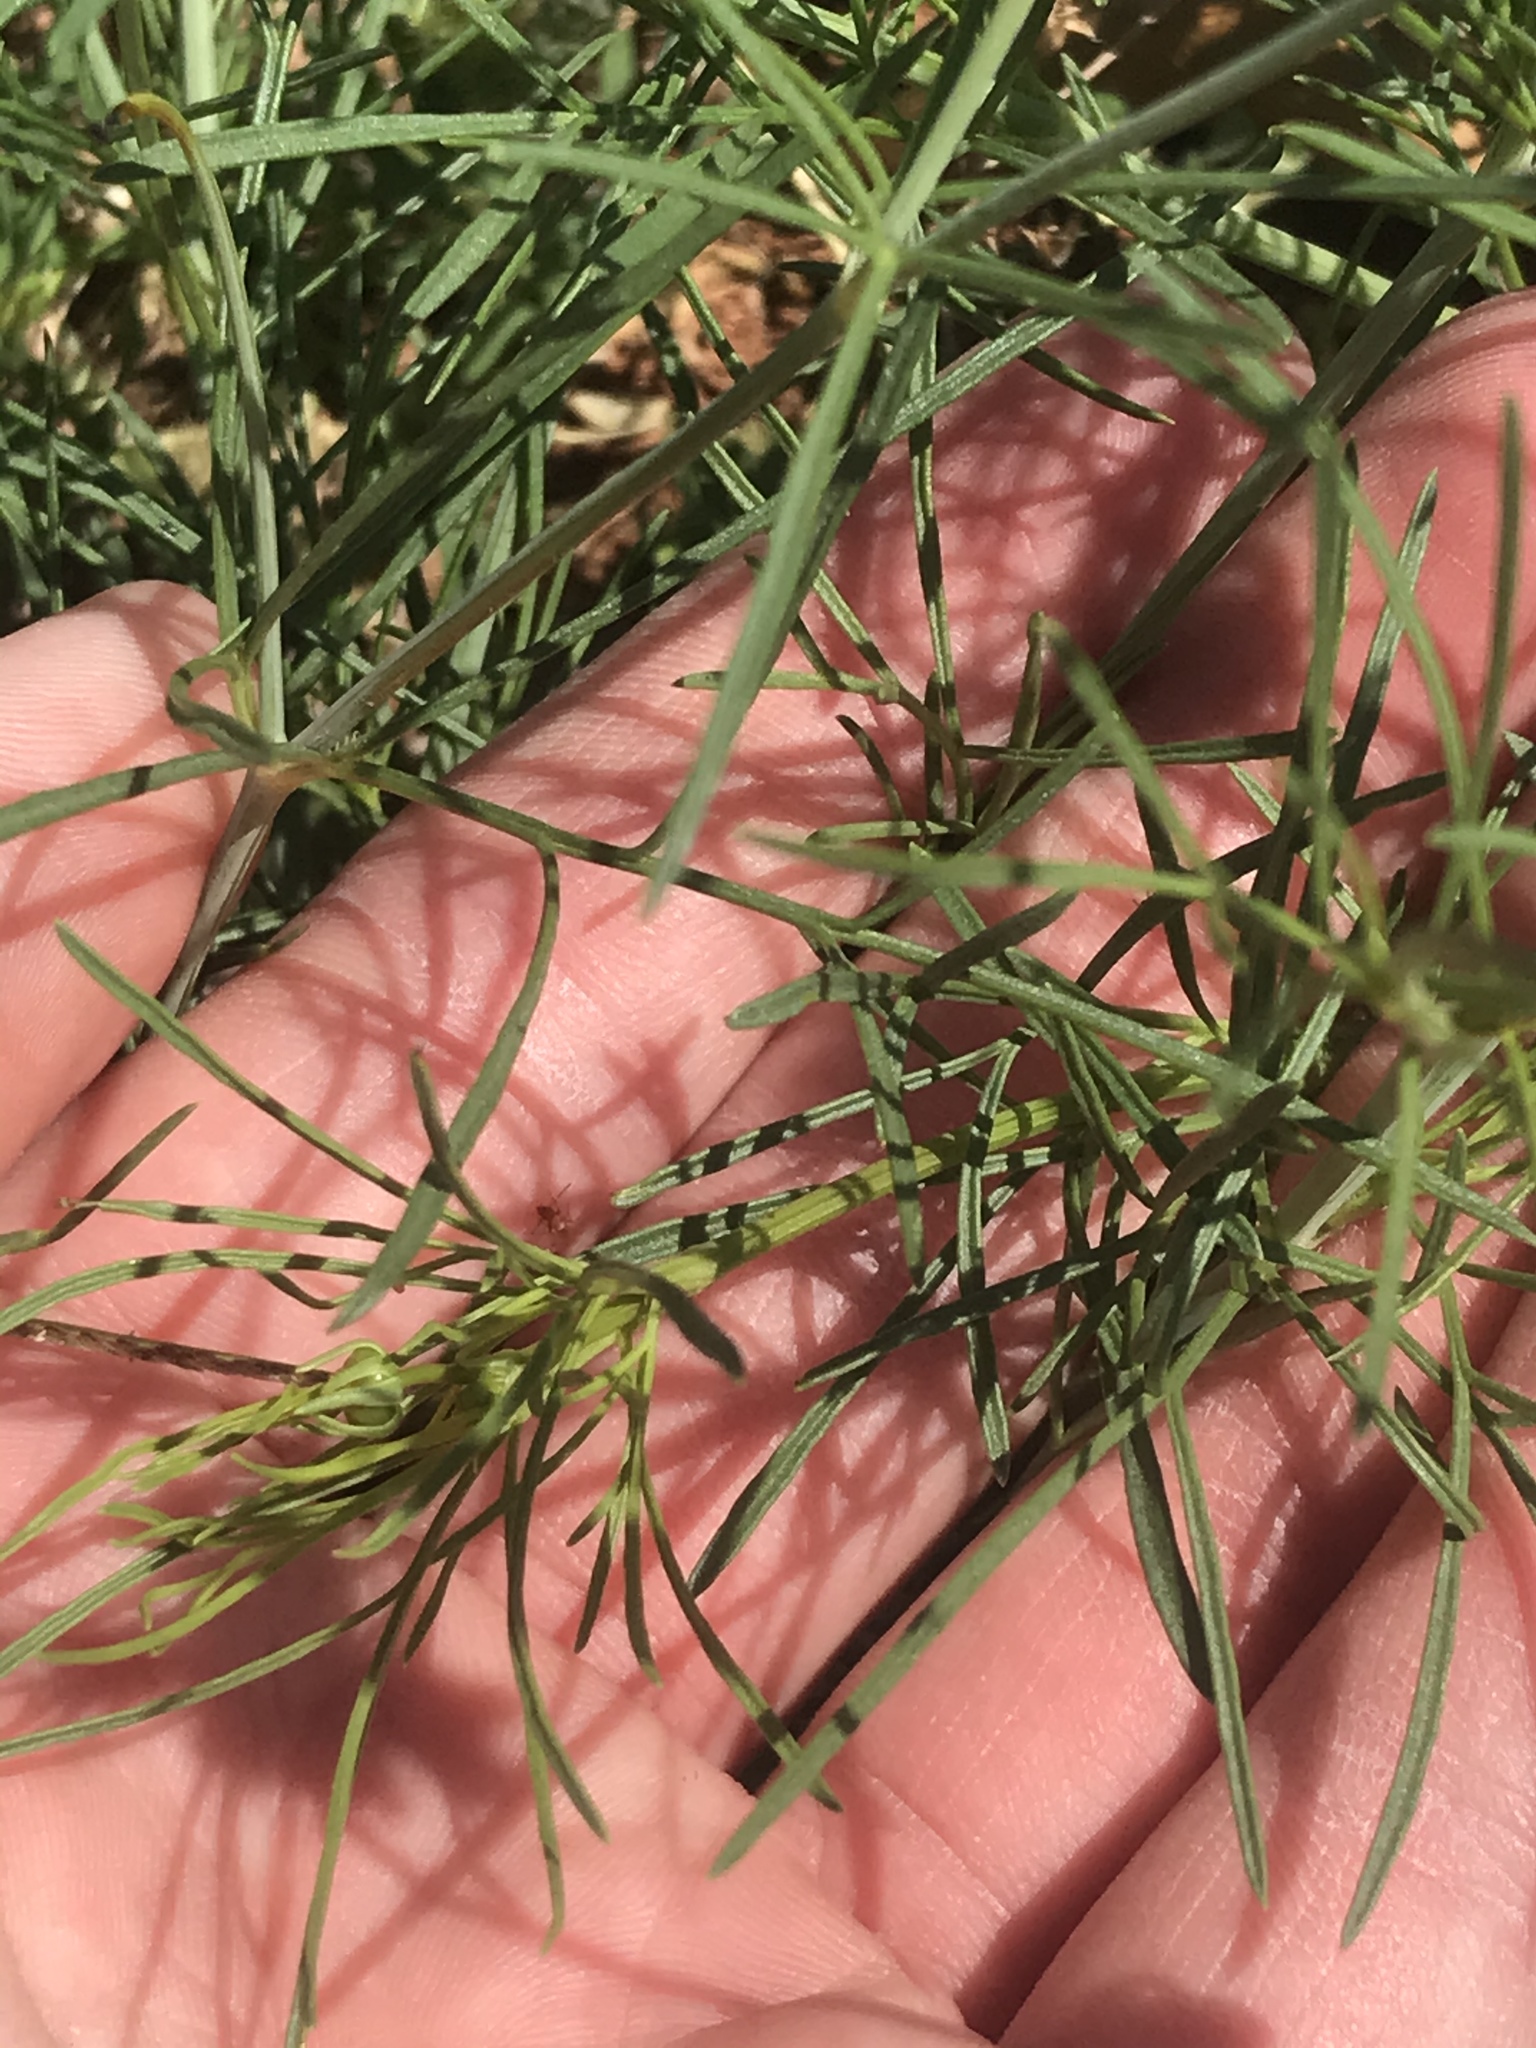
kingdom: Plantae
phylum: Tracheophyta
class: Magnoliopsida
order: Asterales
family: Asteraceae
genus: Thelesperma
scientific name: Thelesperma filifolium
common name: Stiff greenthread
